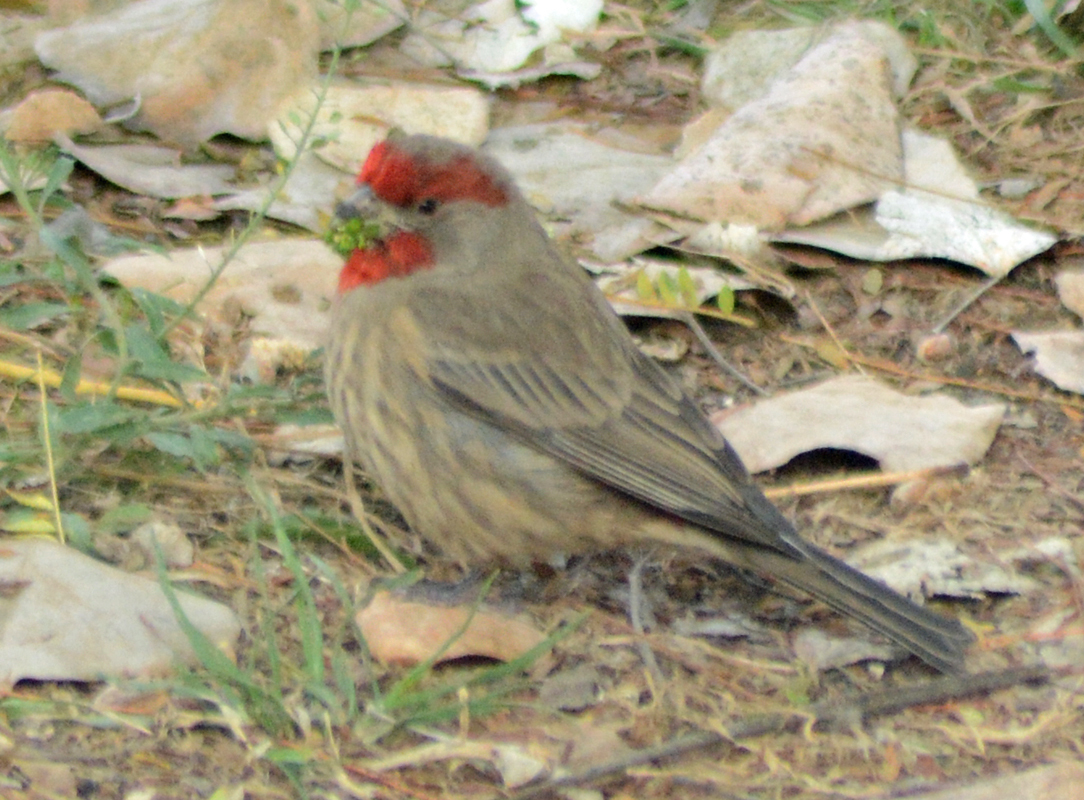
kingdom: Animalia
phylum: Chordata
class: Aves
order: Passeriformes
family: Fringillidae
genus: Haemorhous
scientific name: Haemorhous mexicanus
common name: House finch
